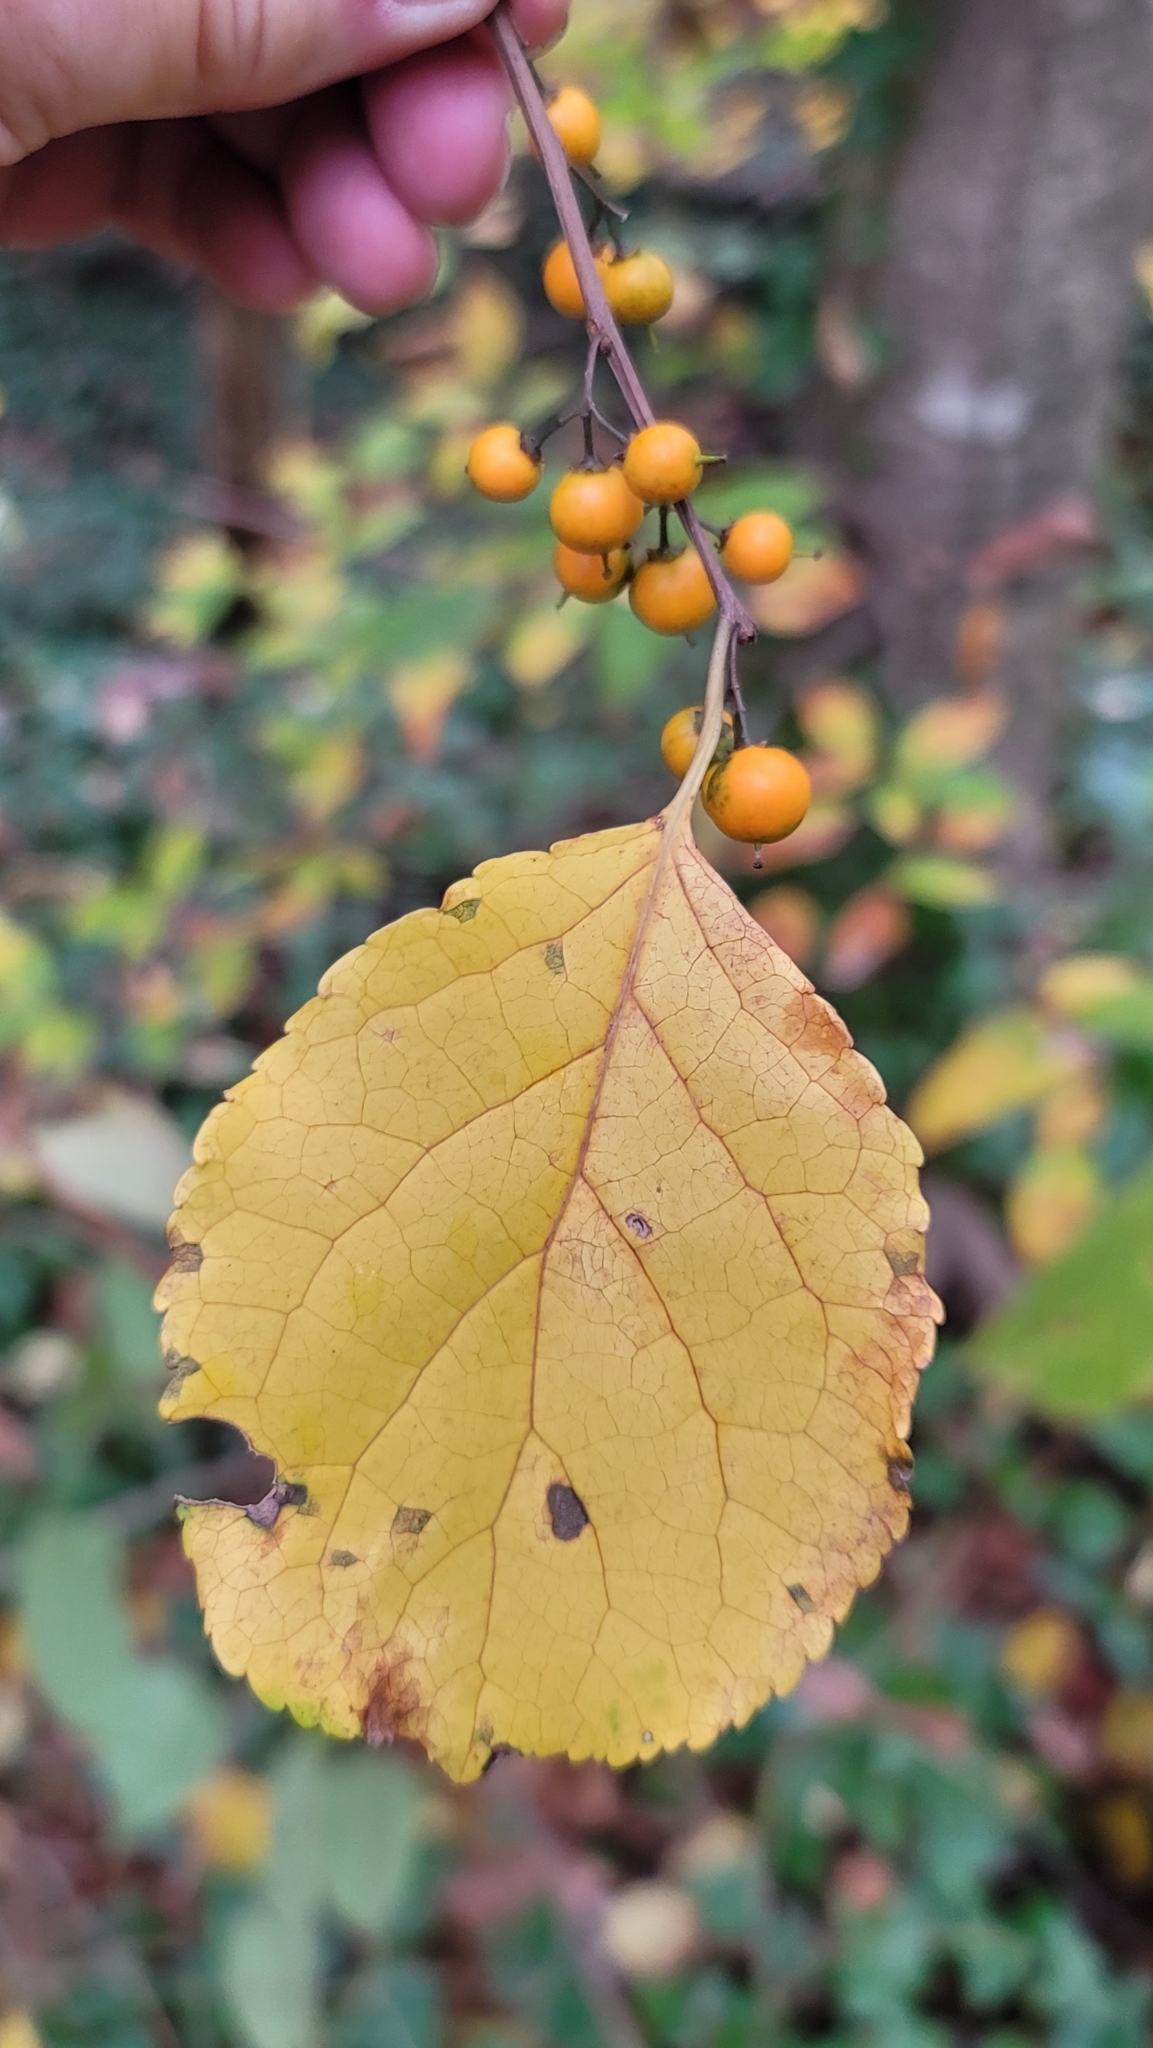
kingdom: Plantae
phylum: Tracheophyta
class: Magnoliopsida
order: Celastrales
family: Celastraceae
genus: Celastrus
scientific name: Celastrus orbiculatus
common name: Oriental bittersweet
